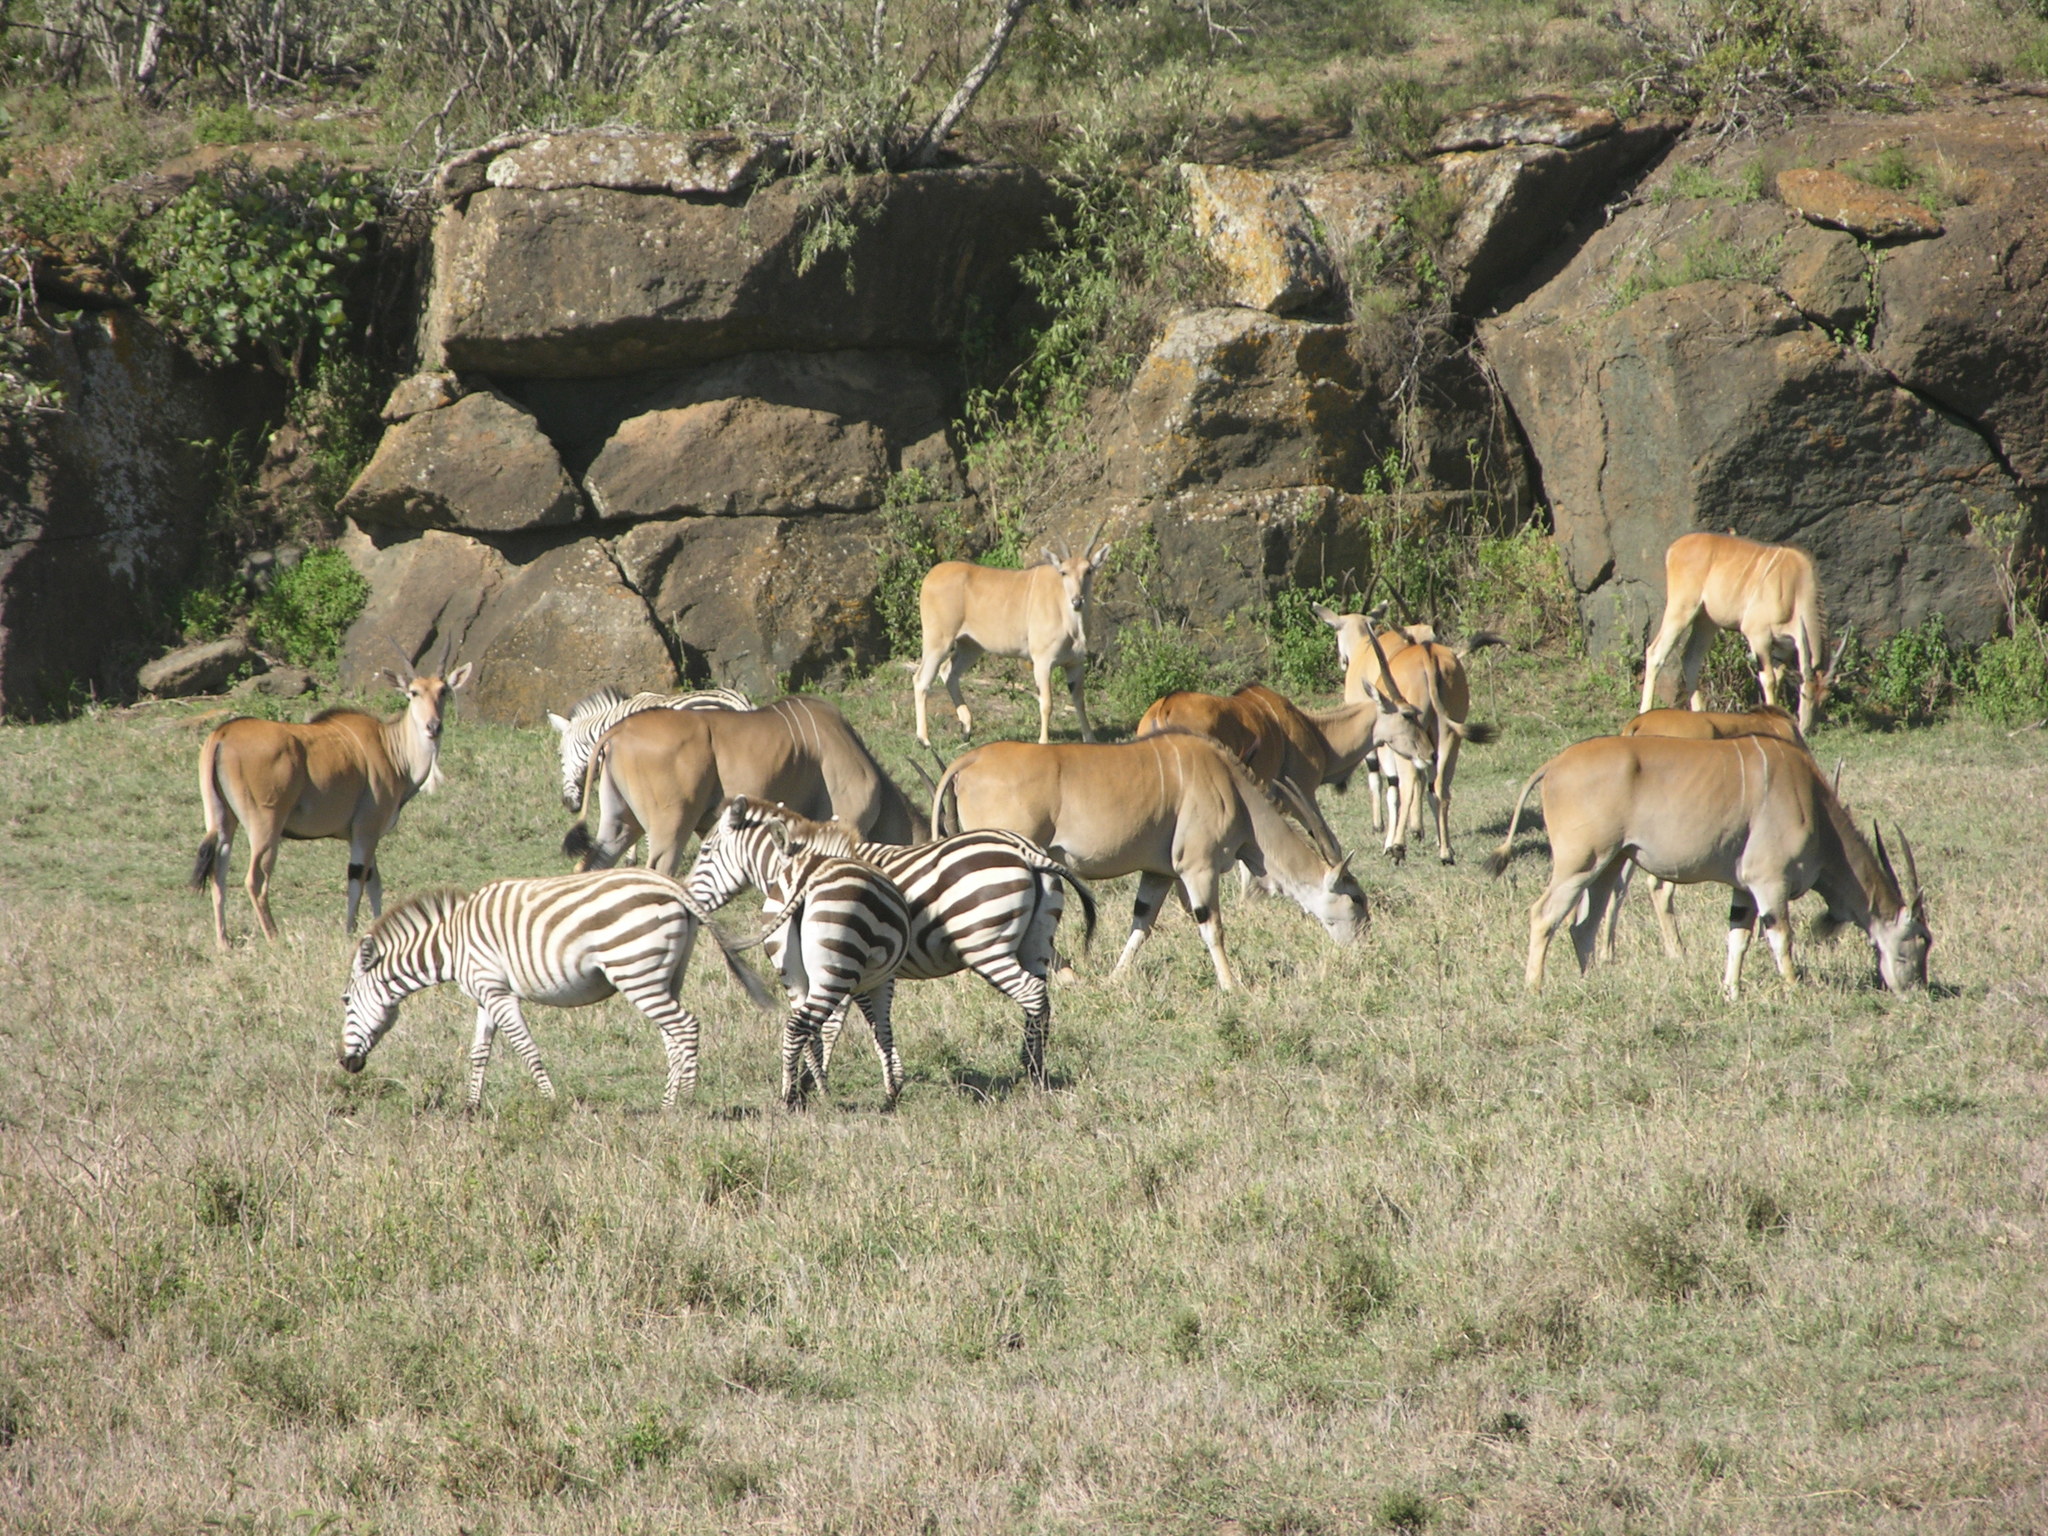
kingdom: Animalia
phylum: Chordata
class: Mammalia
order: Artiodactyla
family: Bovidae
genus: Taurotragus
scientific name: Taurotragus oryx
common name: Common eland
